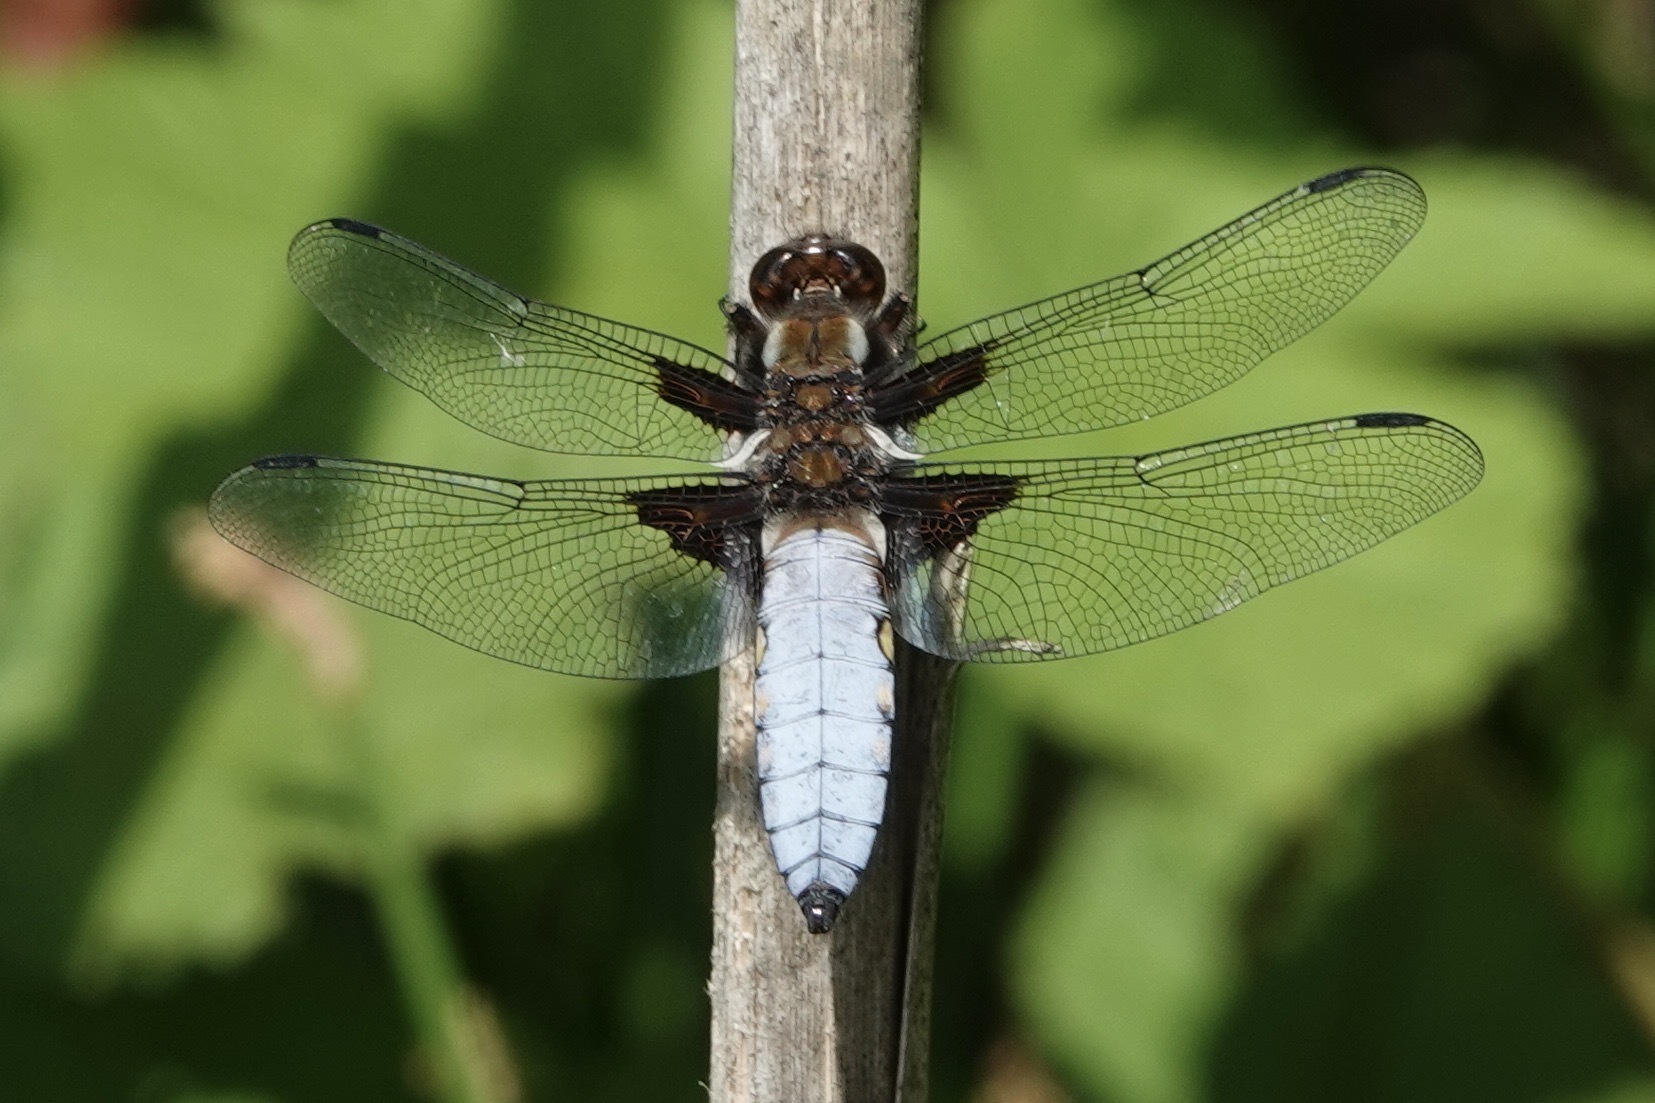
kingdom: Animalia
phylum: Arthropoda
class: Insecta
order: Odonata
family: Libellulidae
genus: Libellula
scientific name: Libellula depressa
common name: Broad-bodied chaser
